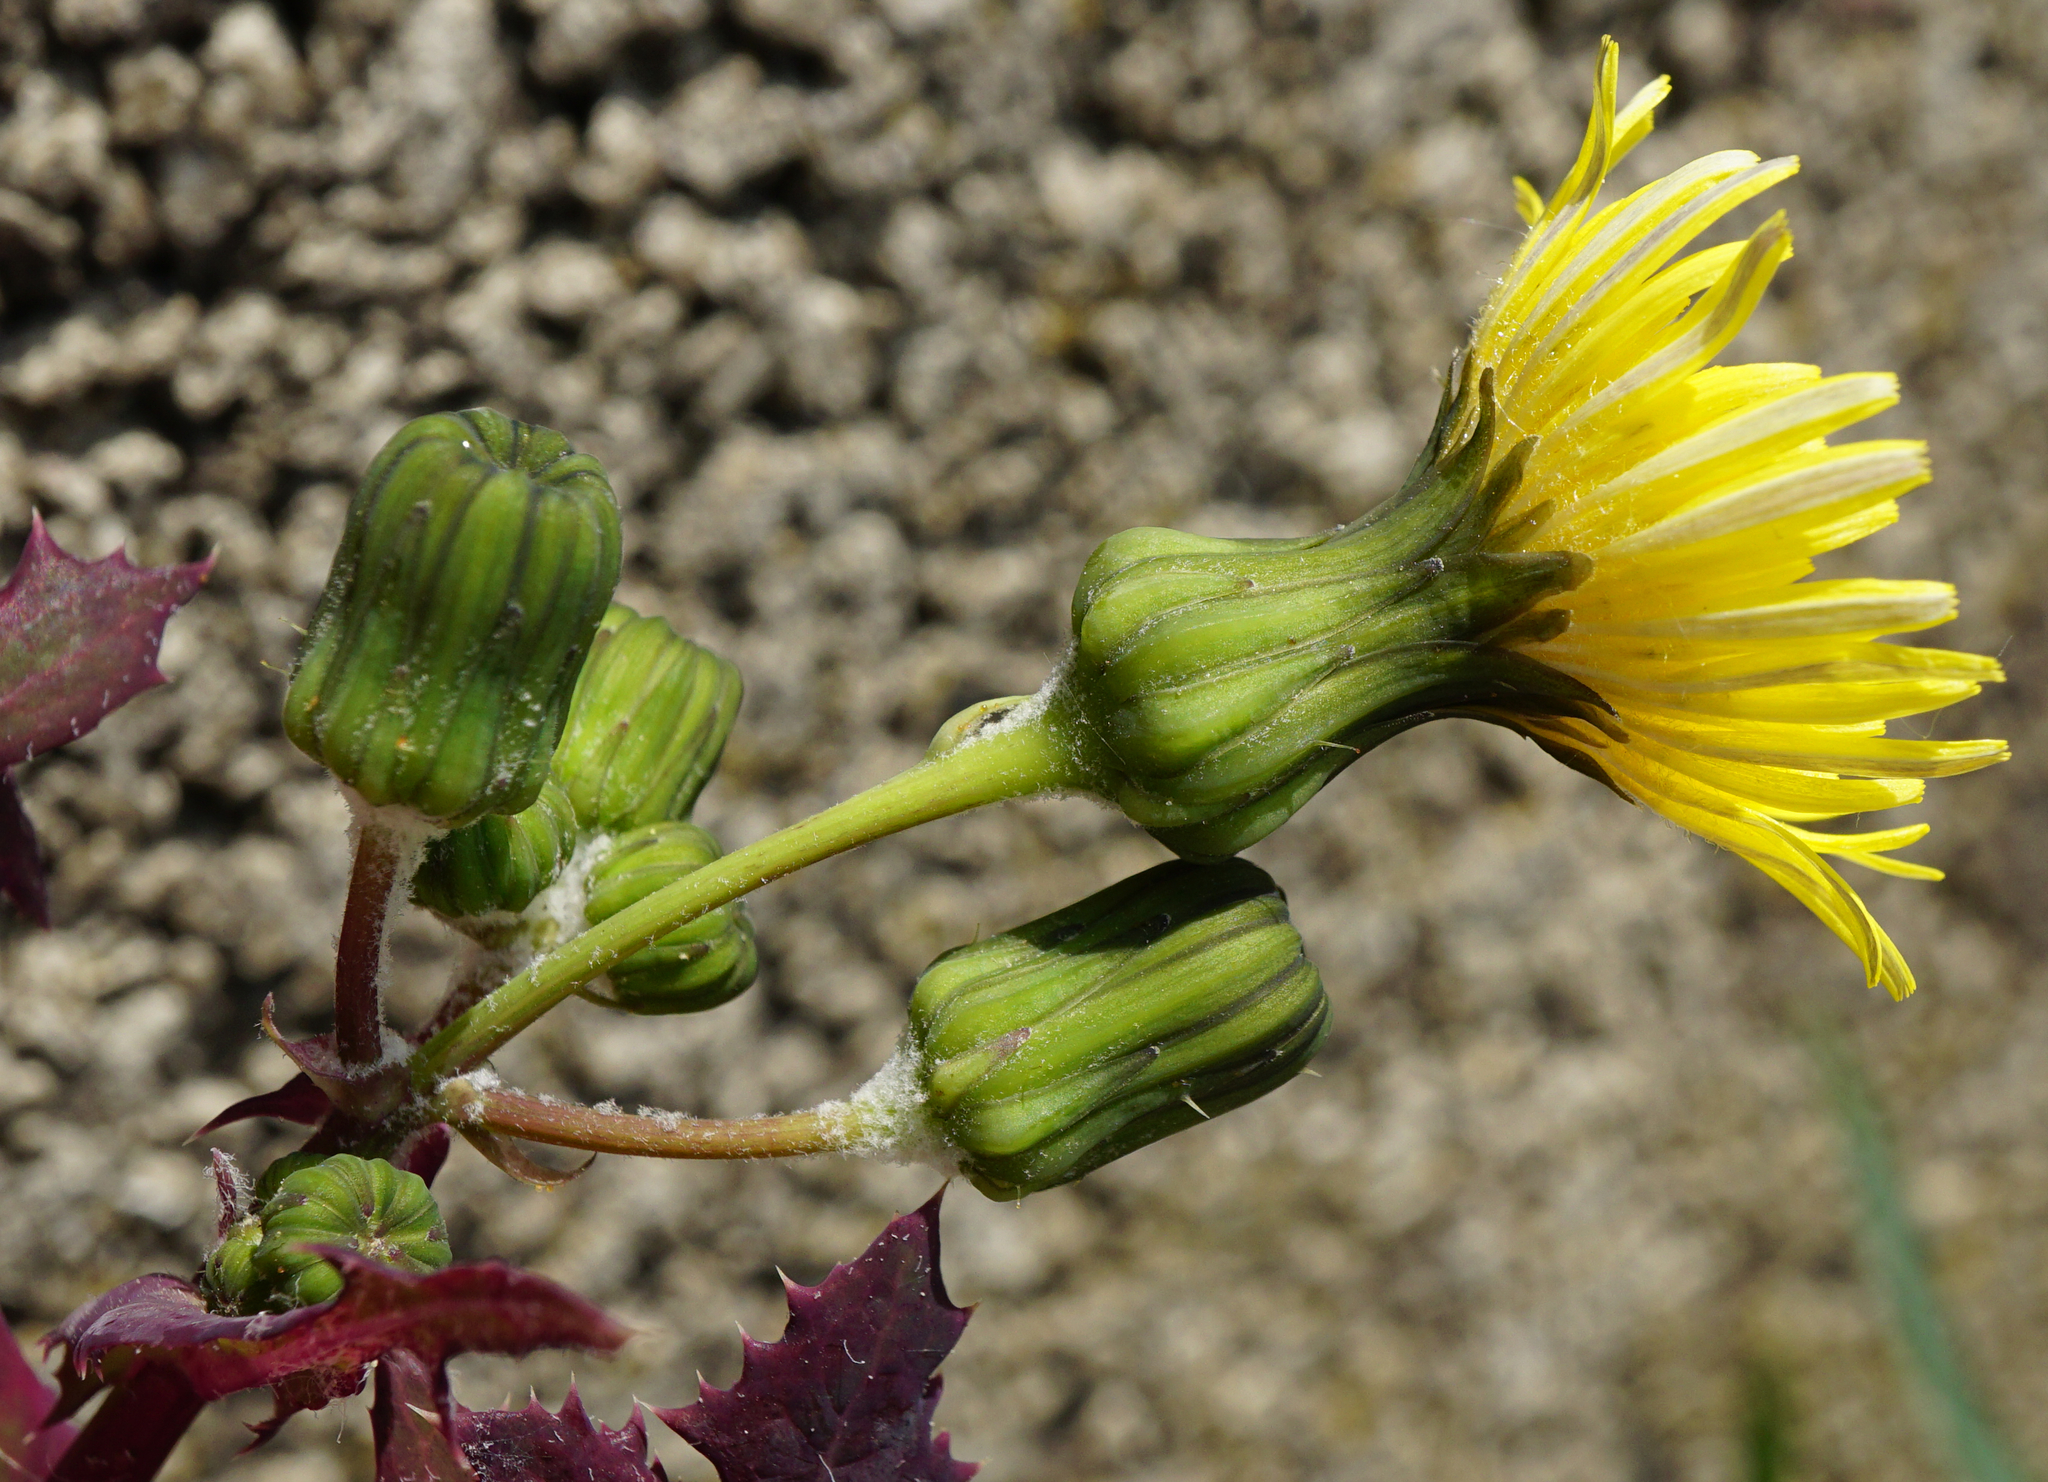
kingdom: Plantae
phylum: Tracheophyta
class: Magnoliopsida
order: Asterales
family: Asteraceae
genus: Sonchus
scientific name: Sonchus oleraceus
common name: Common sowthistle
